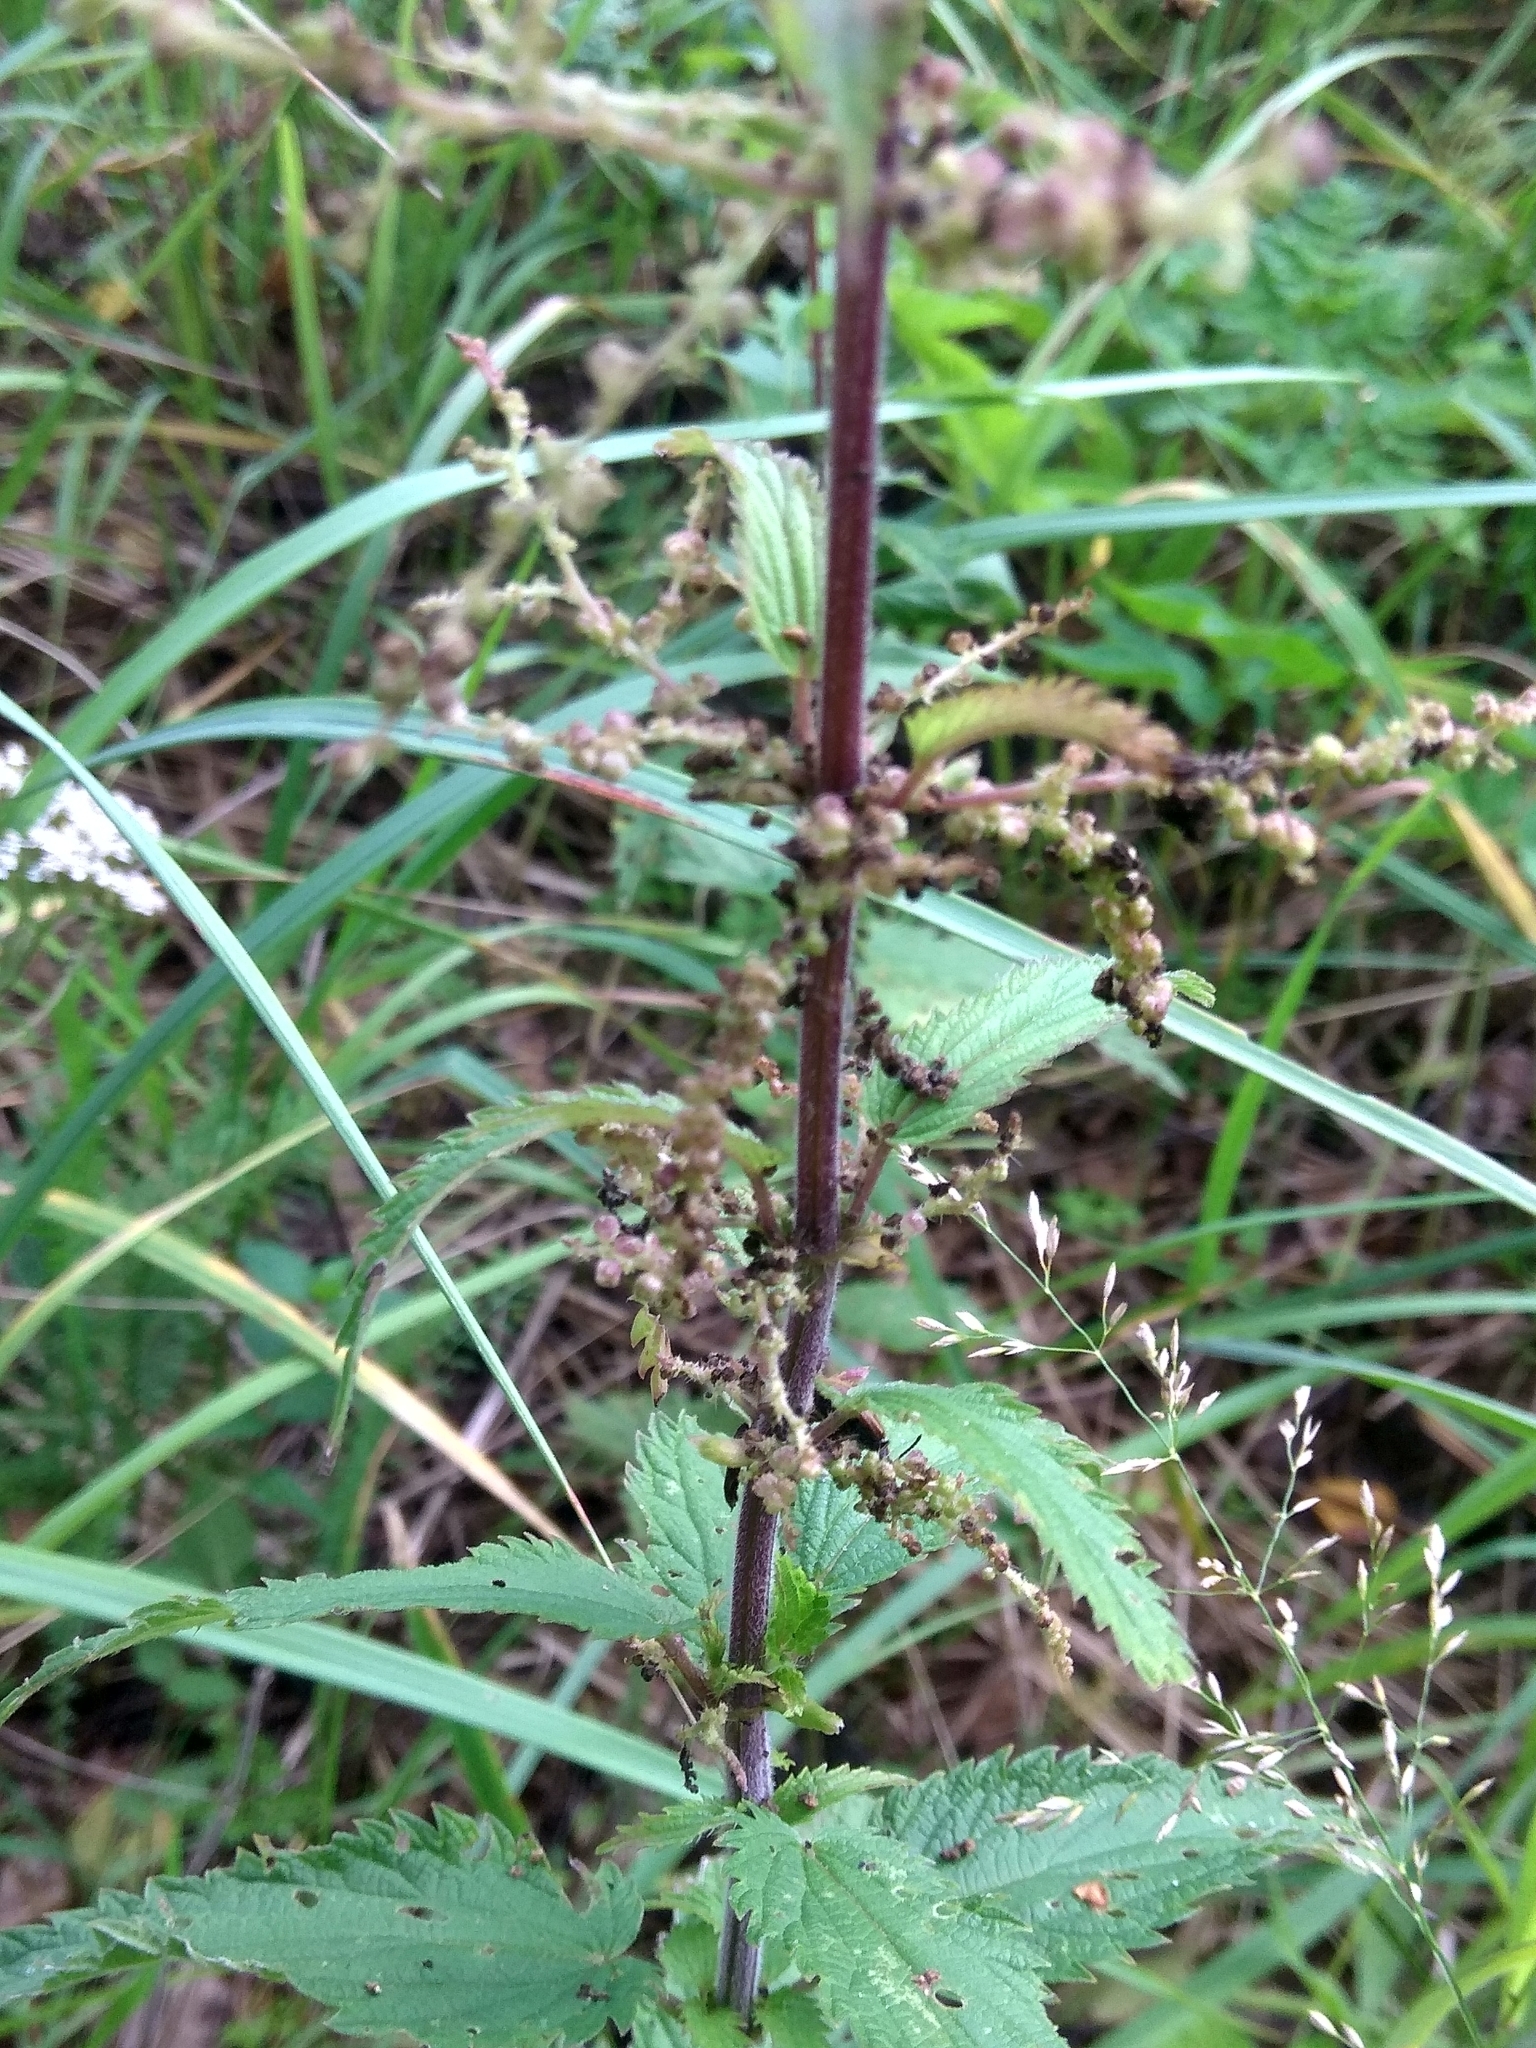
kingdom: Plantae
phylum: Tracheophyta
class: Magnoliopsida
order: Rosales
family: Urticaceae
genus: Urtica
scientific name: Urtica dioica
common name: Common nettle
